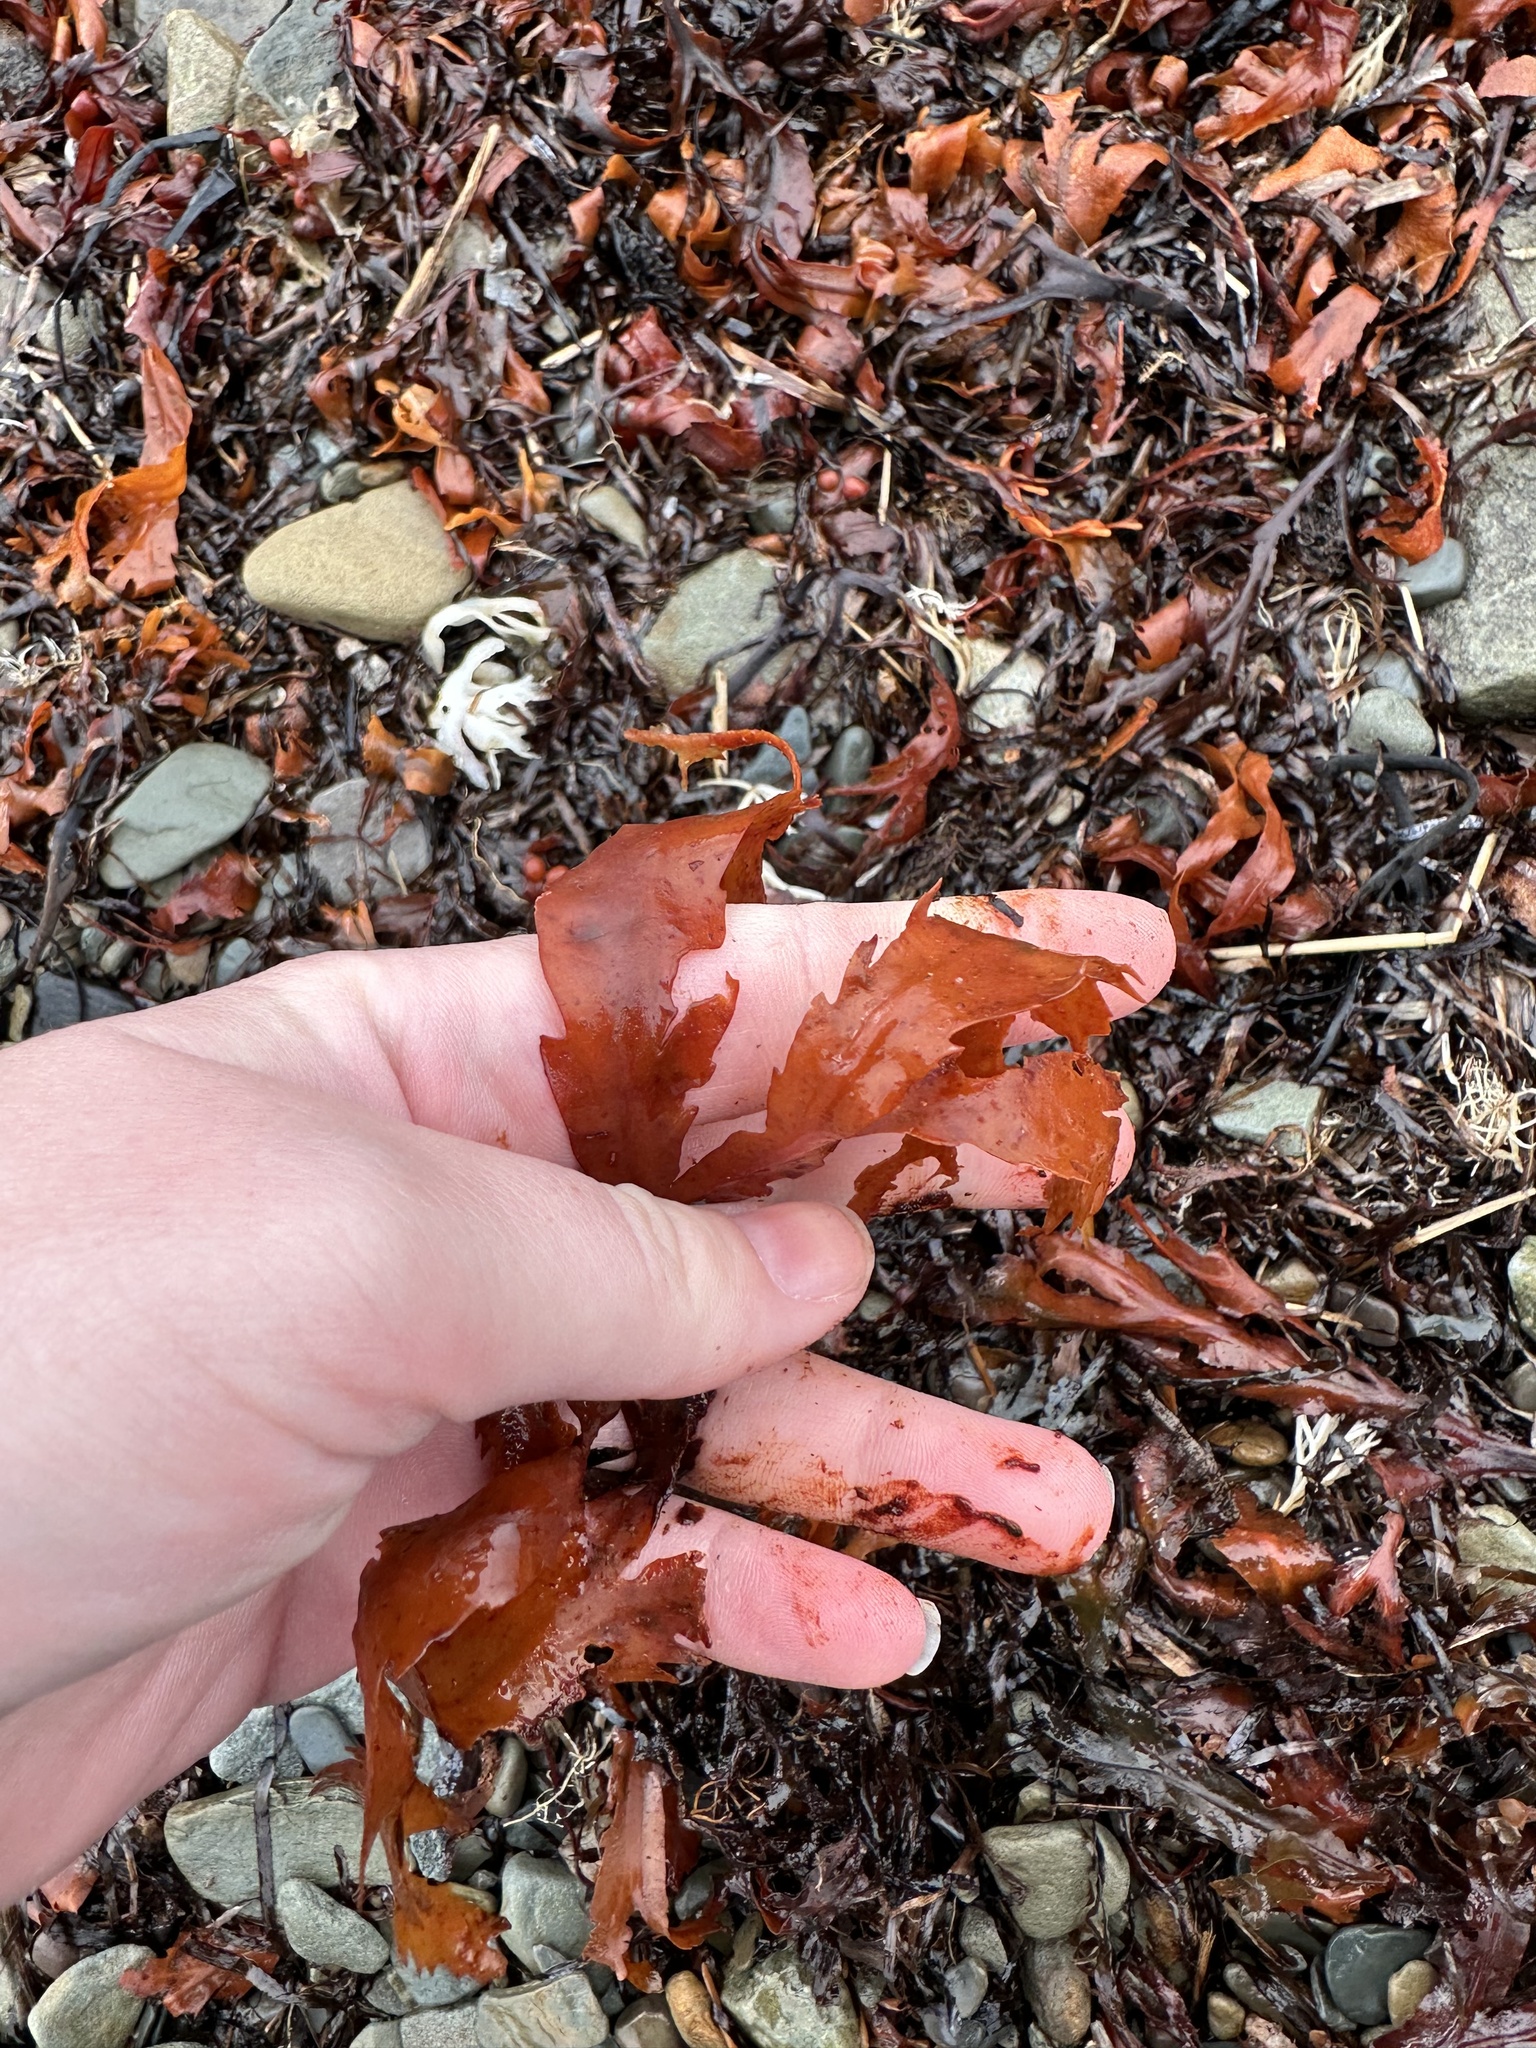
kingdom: Chromista
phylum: Ochrophyta
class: Phaeophyceae
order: Fucales
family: Fucaceae
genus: Fucus
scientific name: Fucus serratus
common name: Toothed wrack
